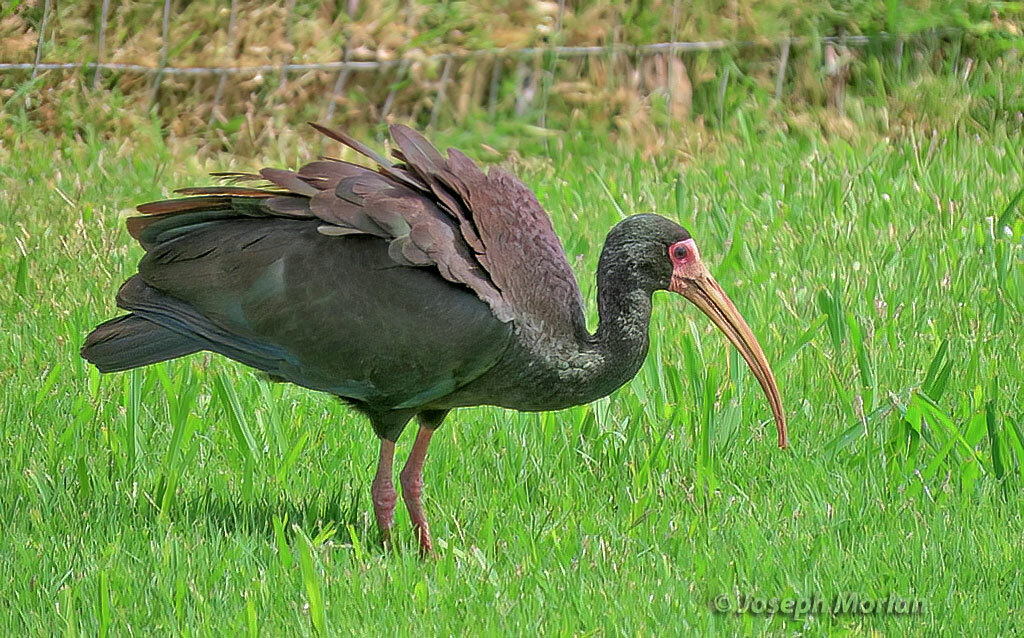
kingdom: Animalia
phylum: Chordata
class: Aves
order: Pelecaniformes
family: Threskiornithidae
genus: Phimosus
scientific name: Phimosus infuscatus
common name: Bare-faced ibis
